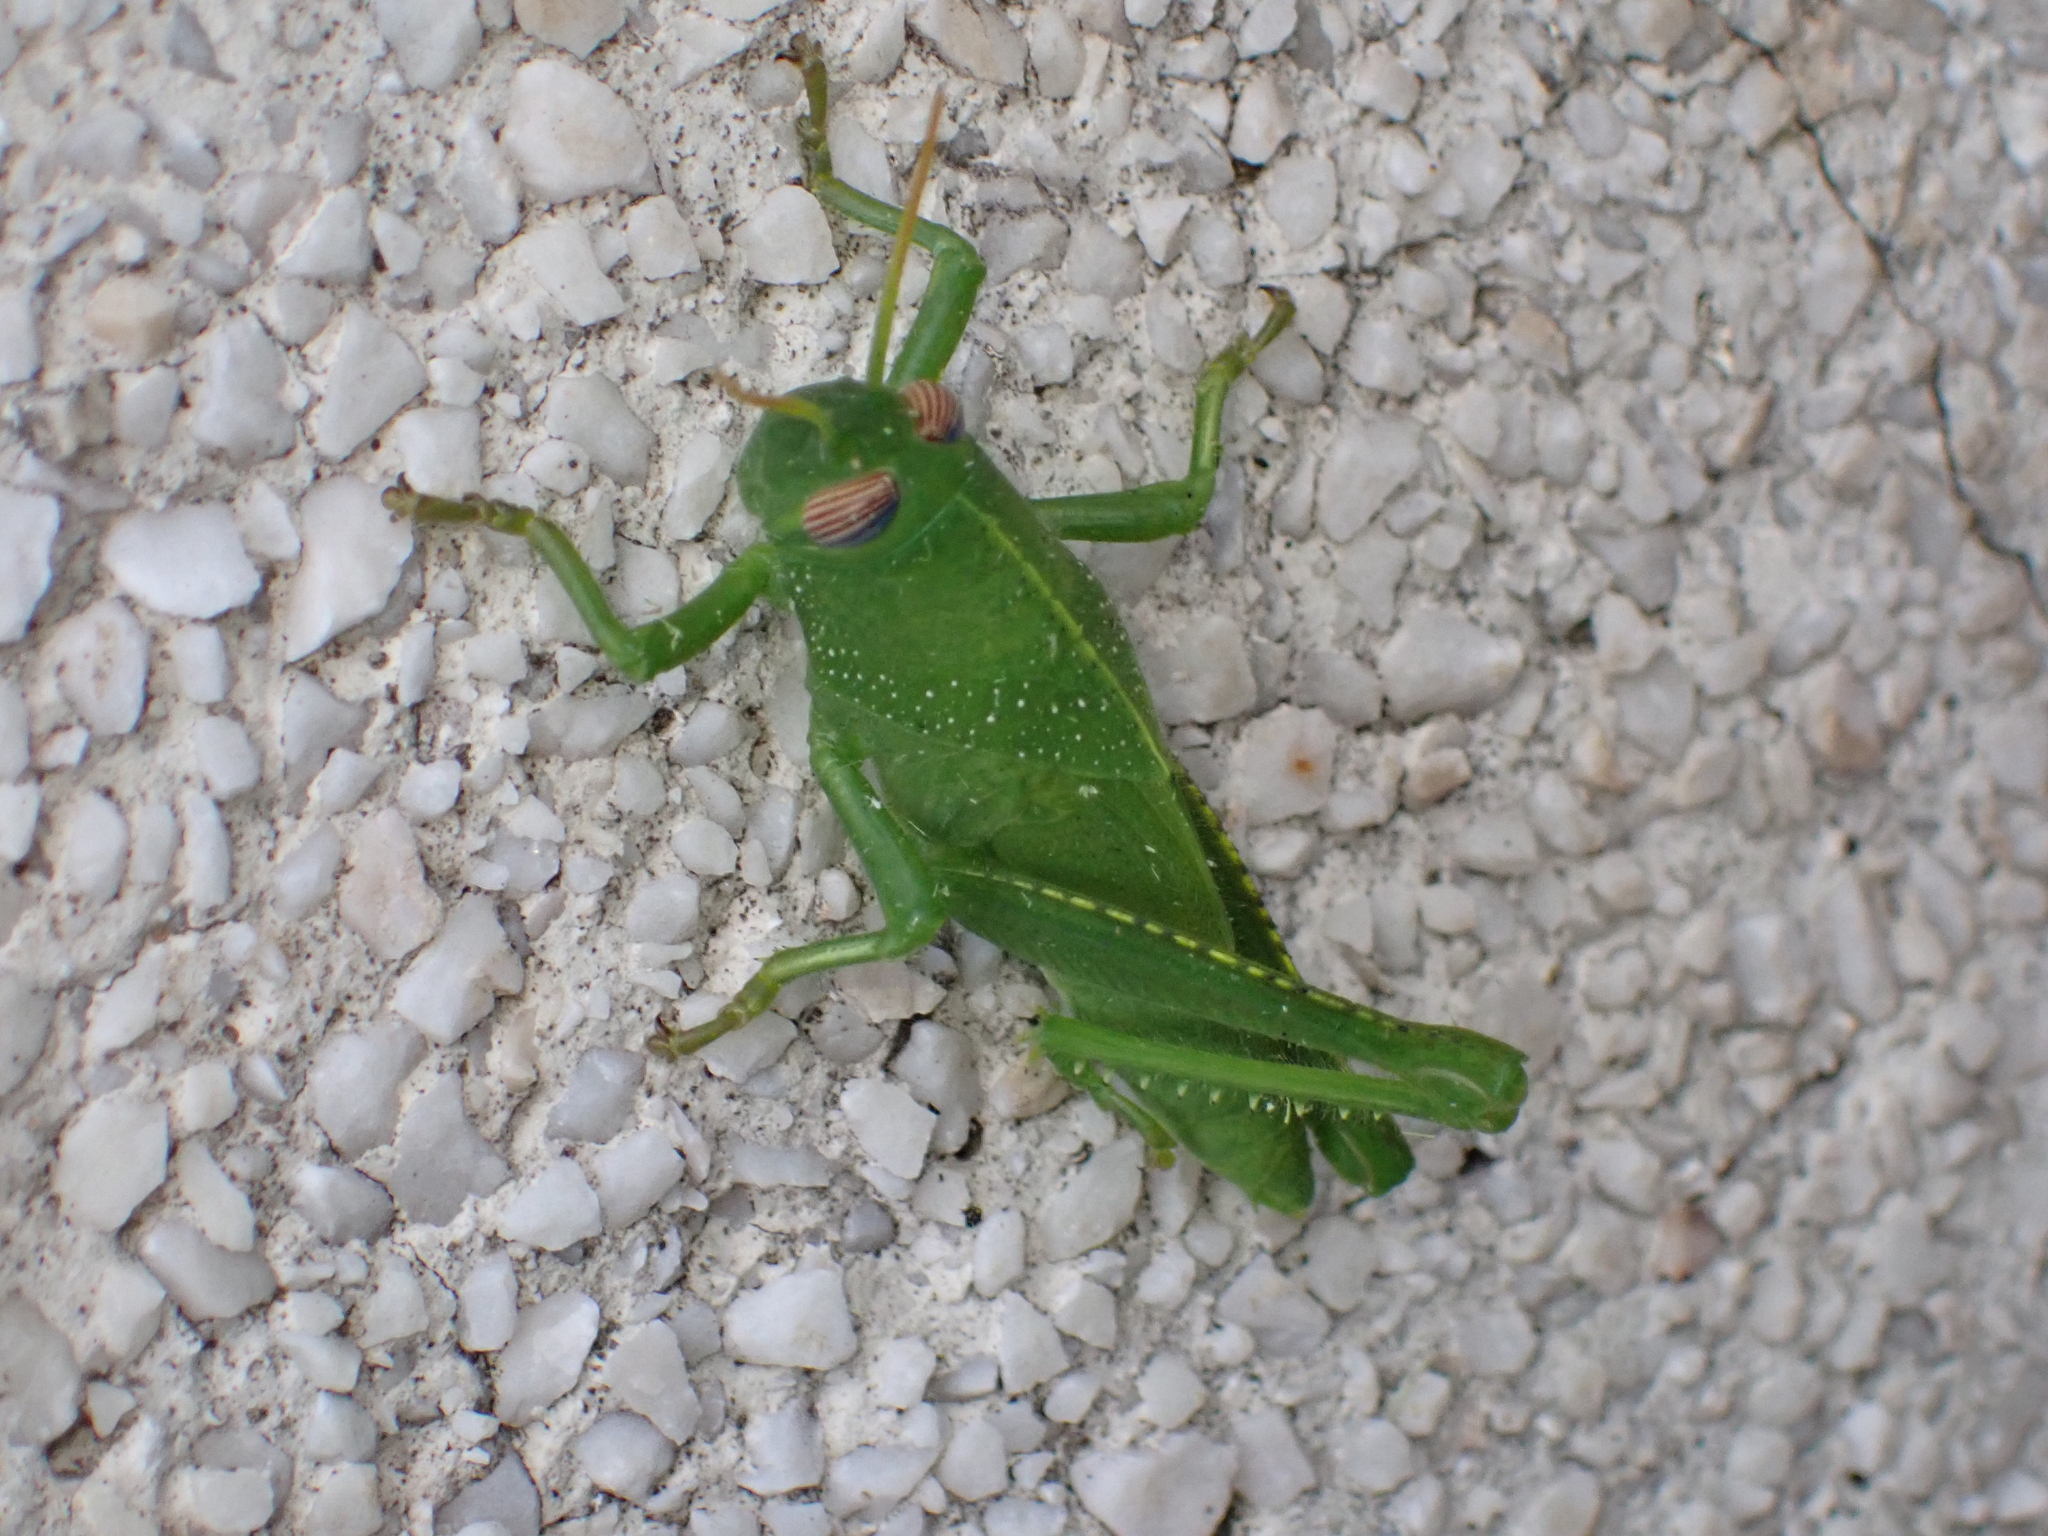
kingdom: Animalia
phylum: Arthropoda
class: Insecta
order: Orthoptera
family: Acrididae
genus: Anacridium
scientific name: Anacridium aegyptium
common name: Egyptian grasshopper
